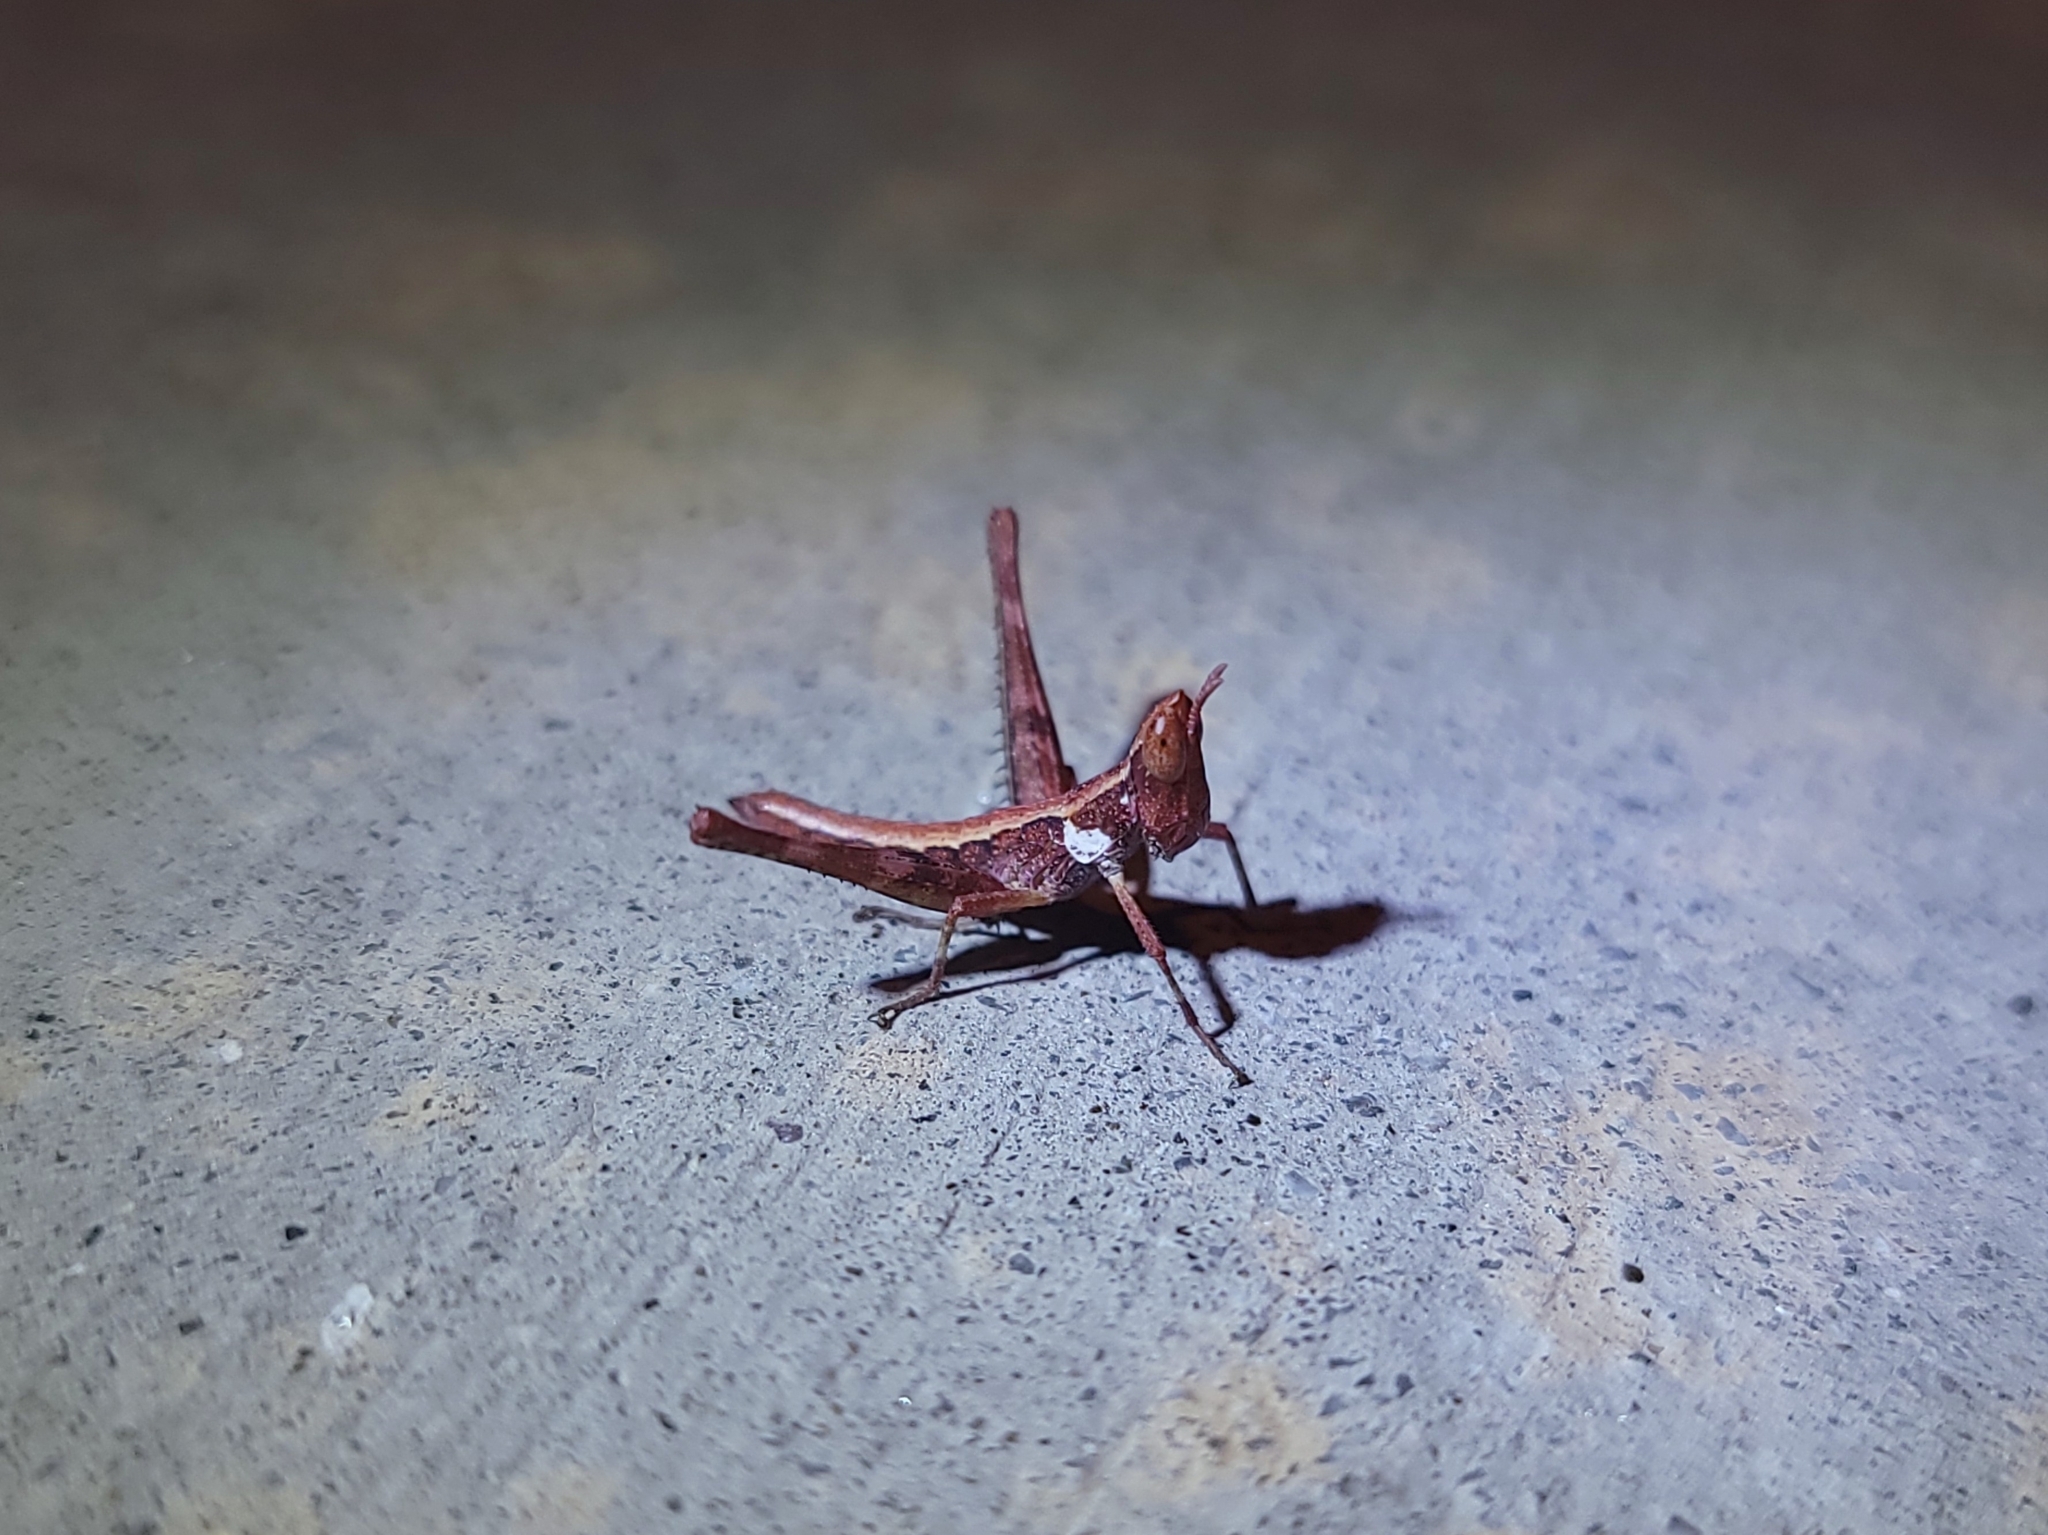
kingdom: Animalia
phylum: Arthropoda
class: Insecta
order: Orthoptera
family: Eumastacidae
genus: Morsea
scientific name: Morsea californica
